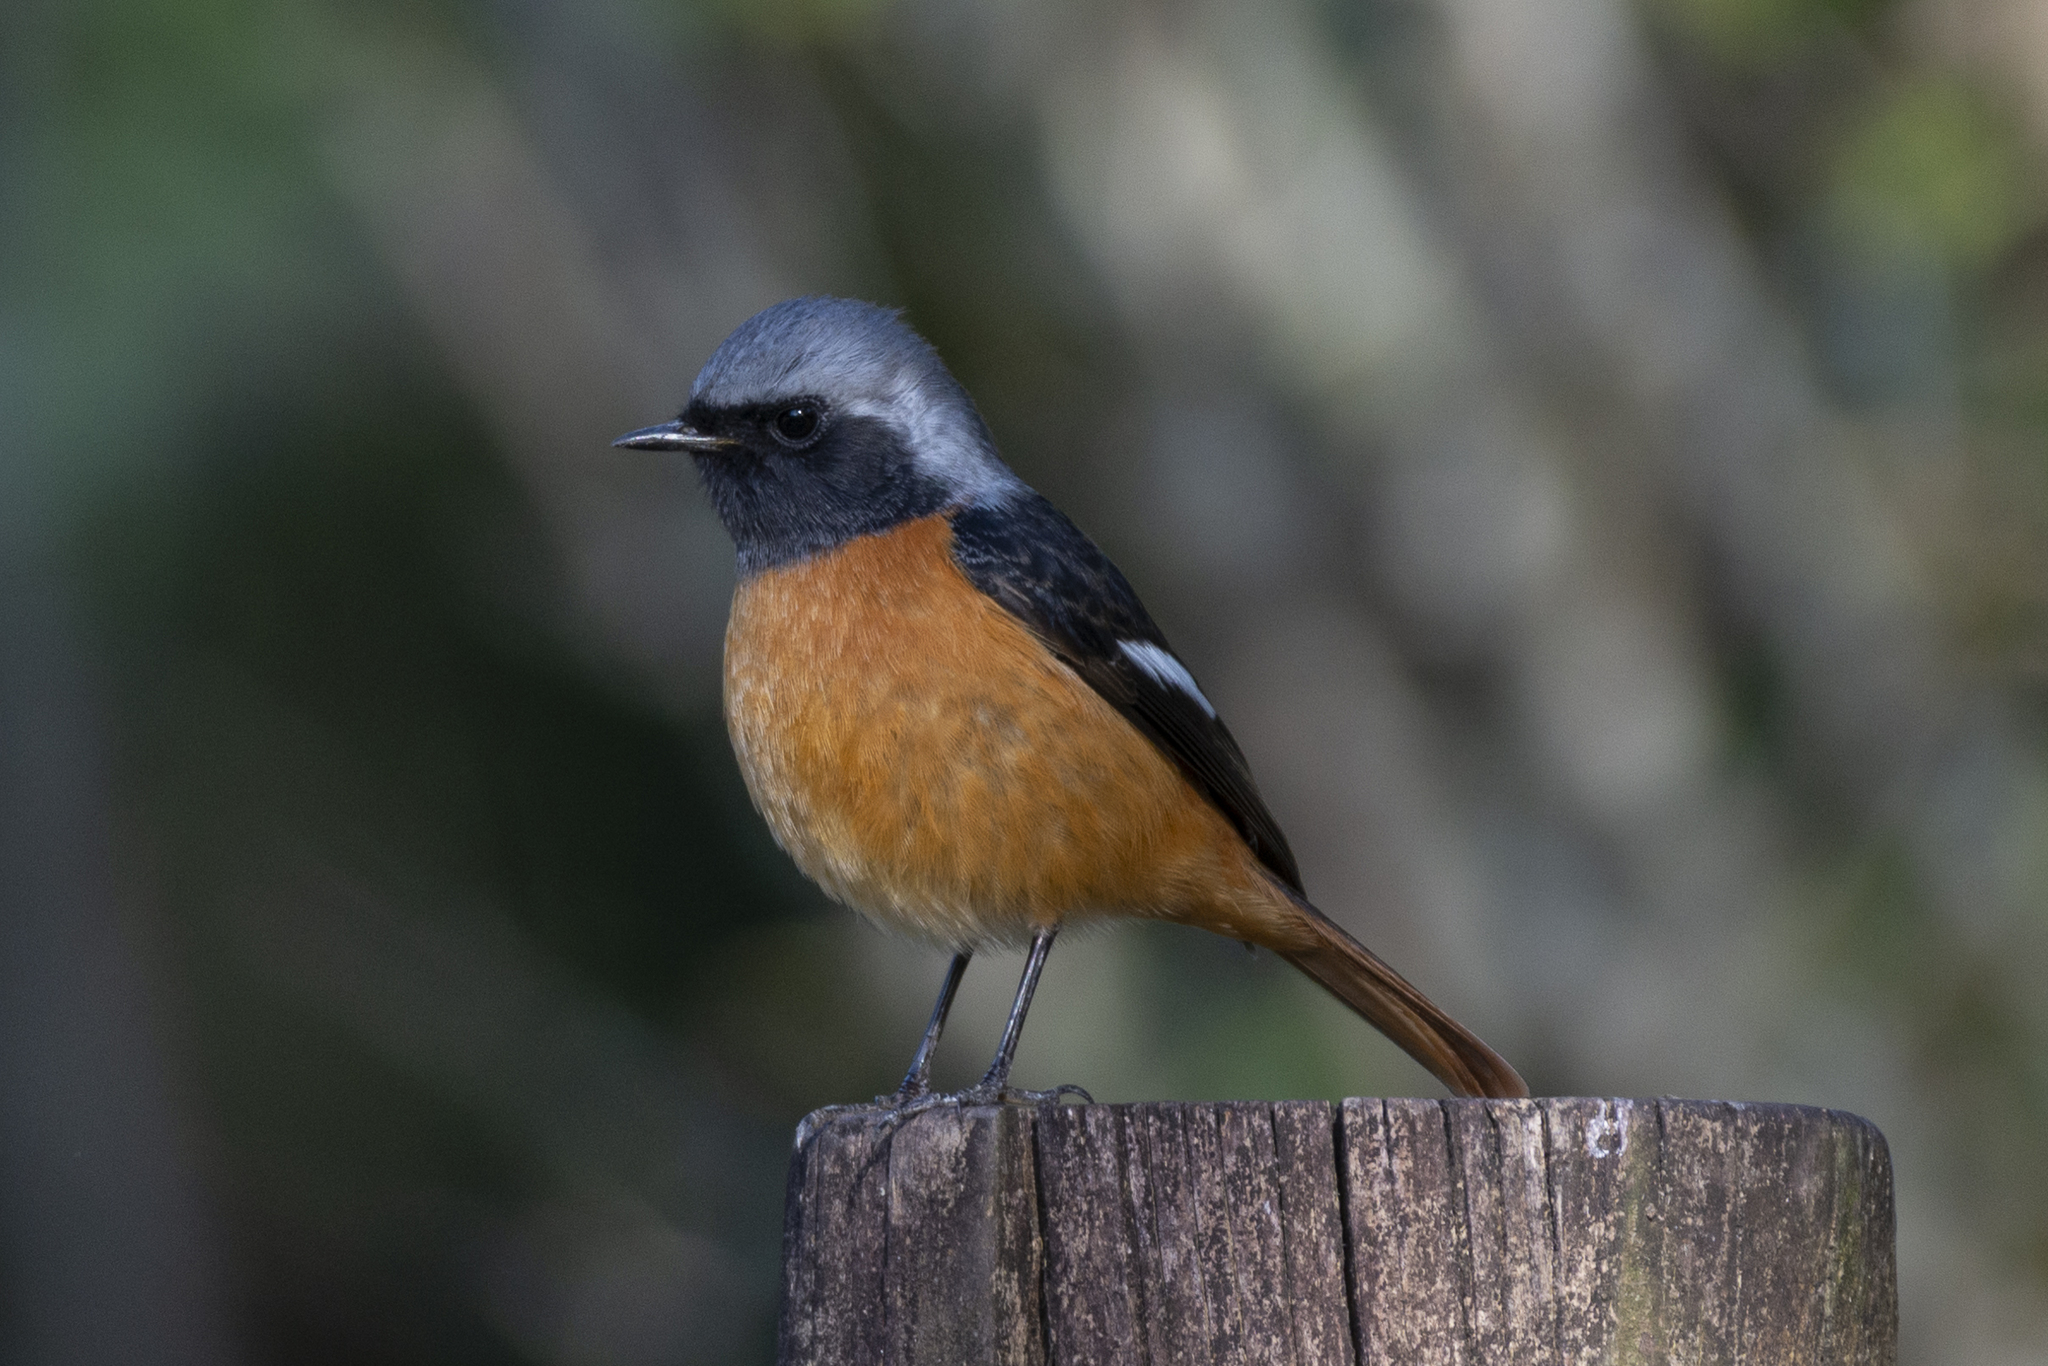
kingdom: Animalia
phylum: Chordata
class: Aves
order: Passeriformes
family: Muscicapidae
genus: Phoenicurus
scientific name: Phoenicurus auroreus
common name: Daurian redstart
